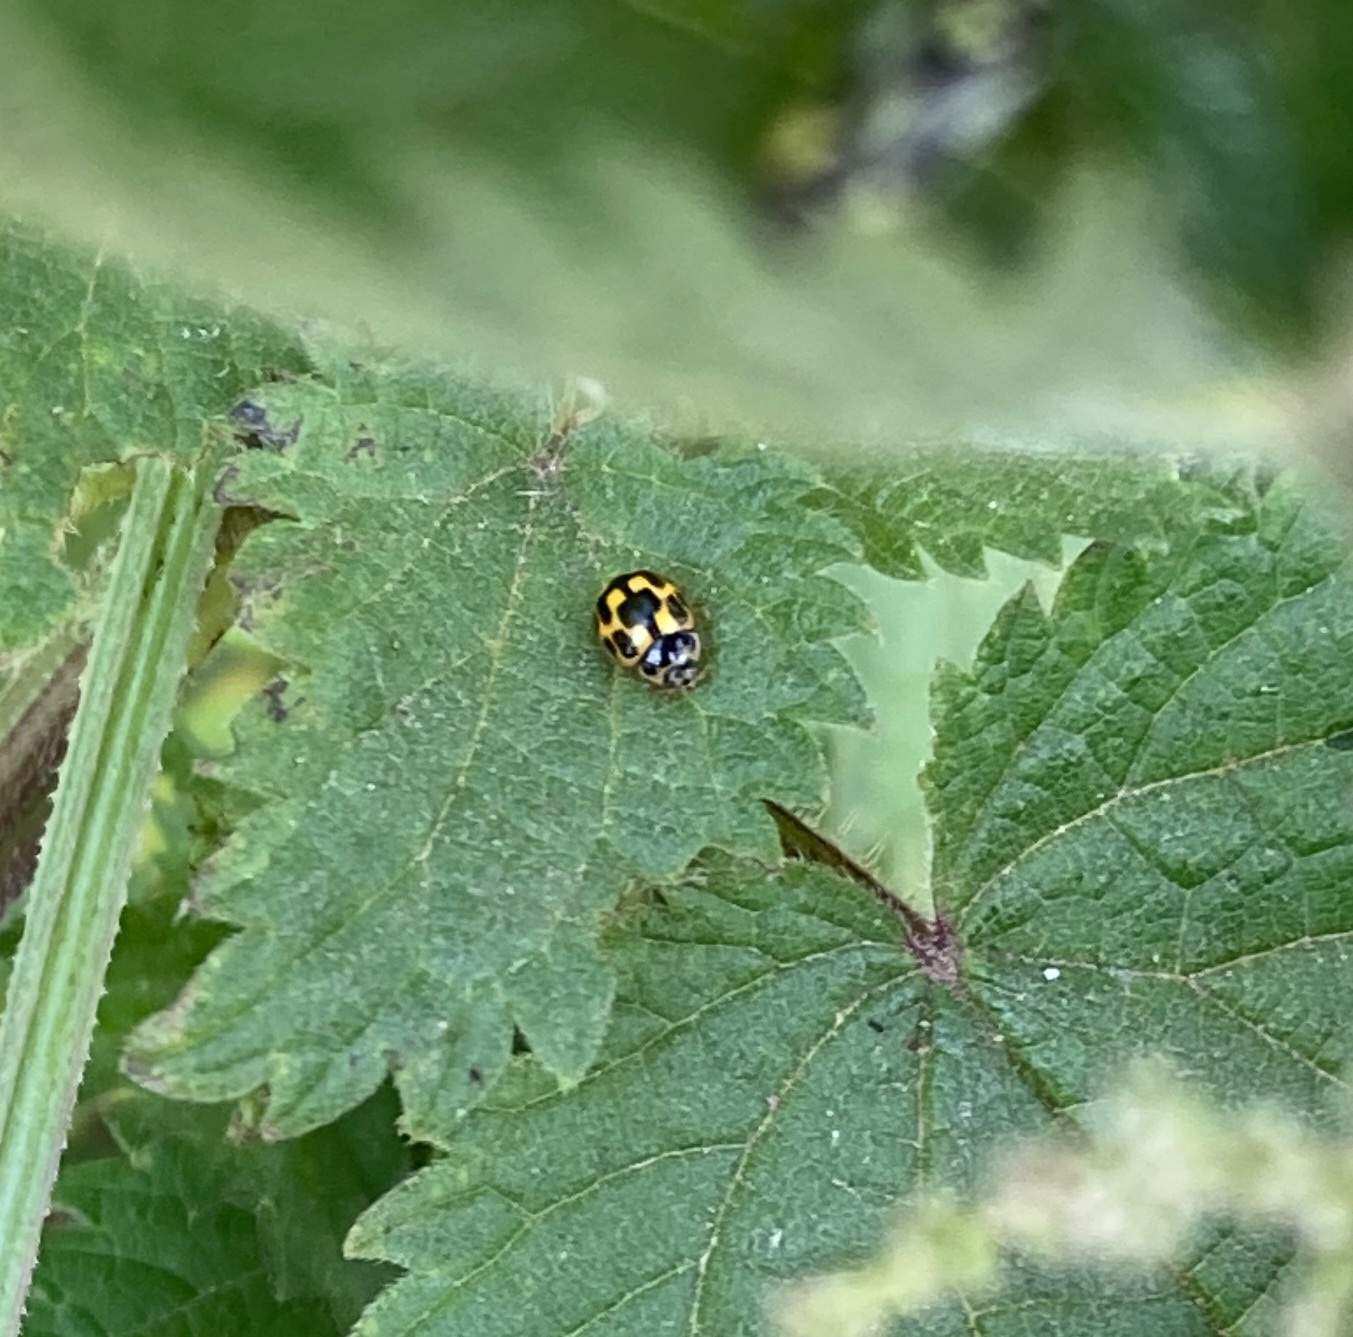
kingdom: Animalia
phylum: Arthropoda
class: Insecta
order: Coleoptera
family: Coccinellidae
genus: Propylaea
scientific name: Propylaea quatuordecimpunctata
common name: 14-spotted ladybird beetle
